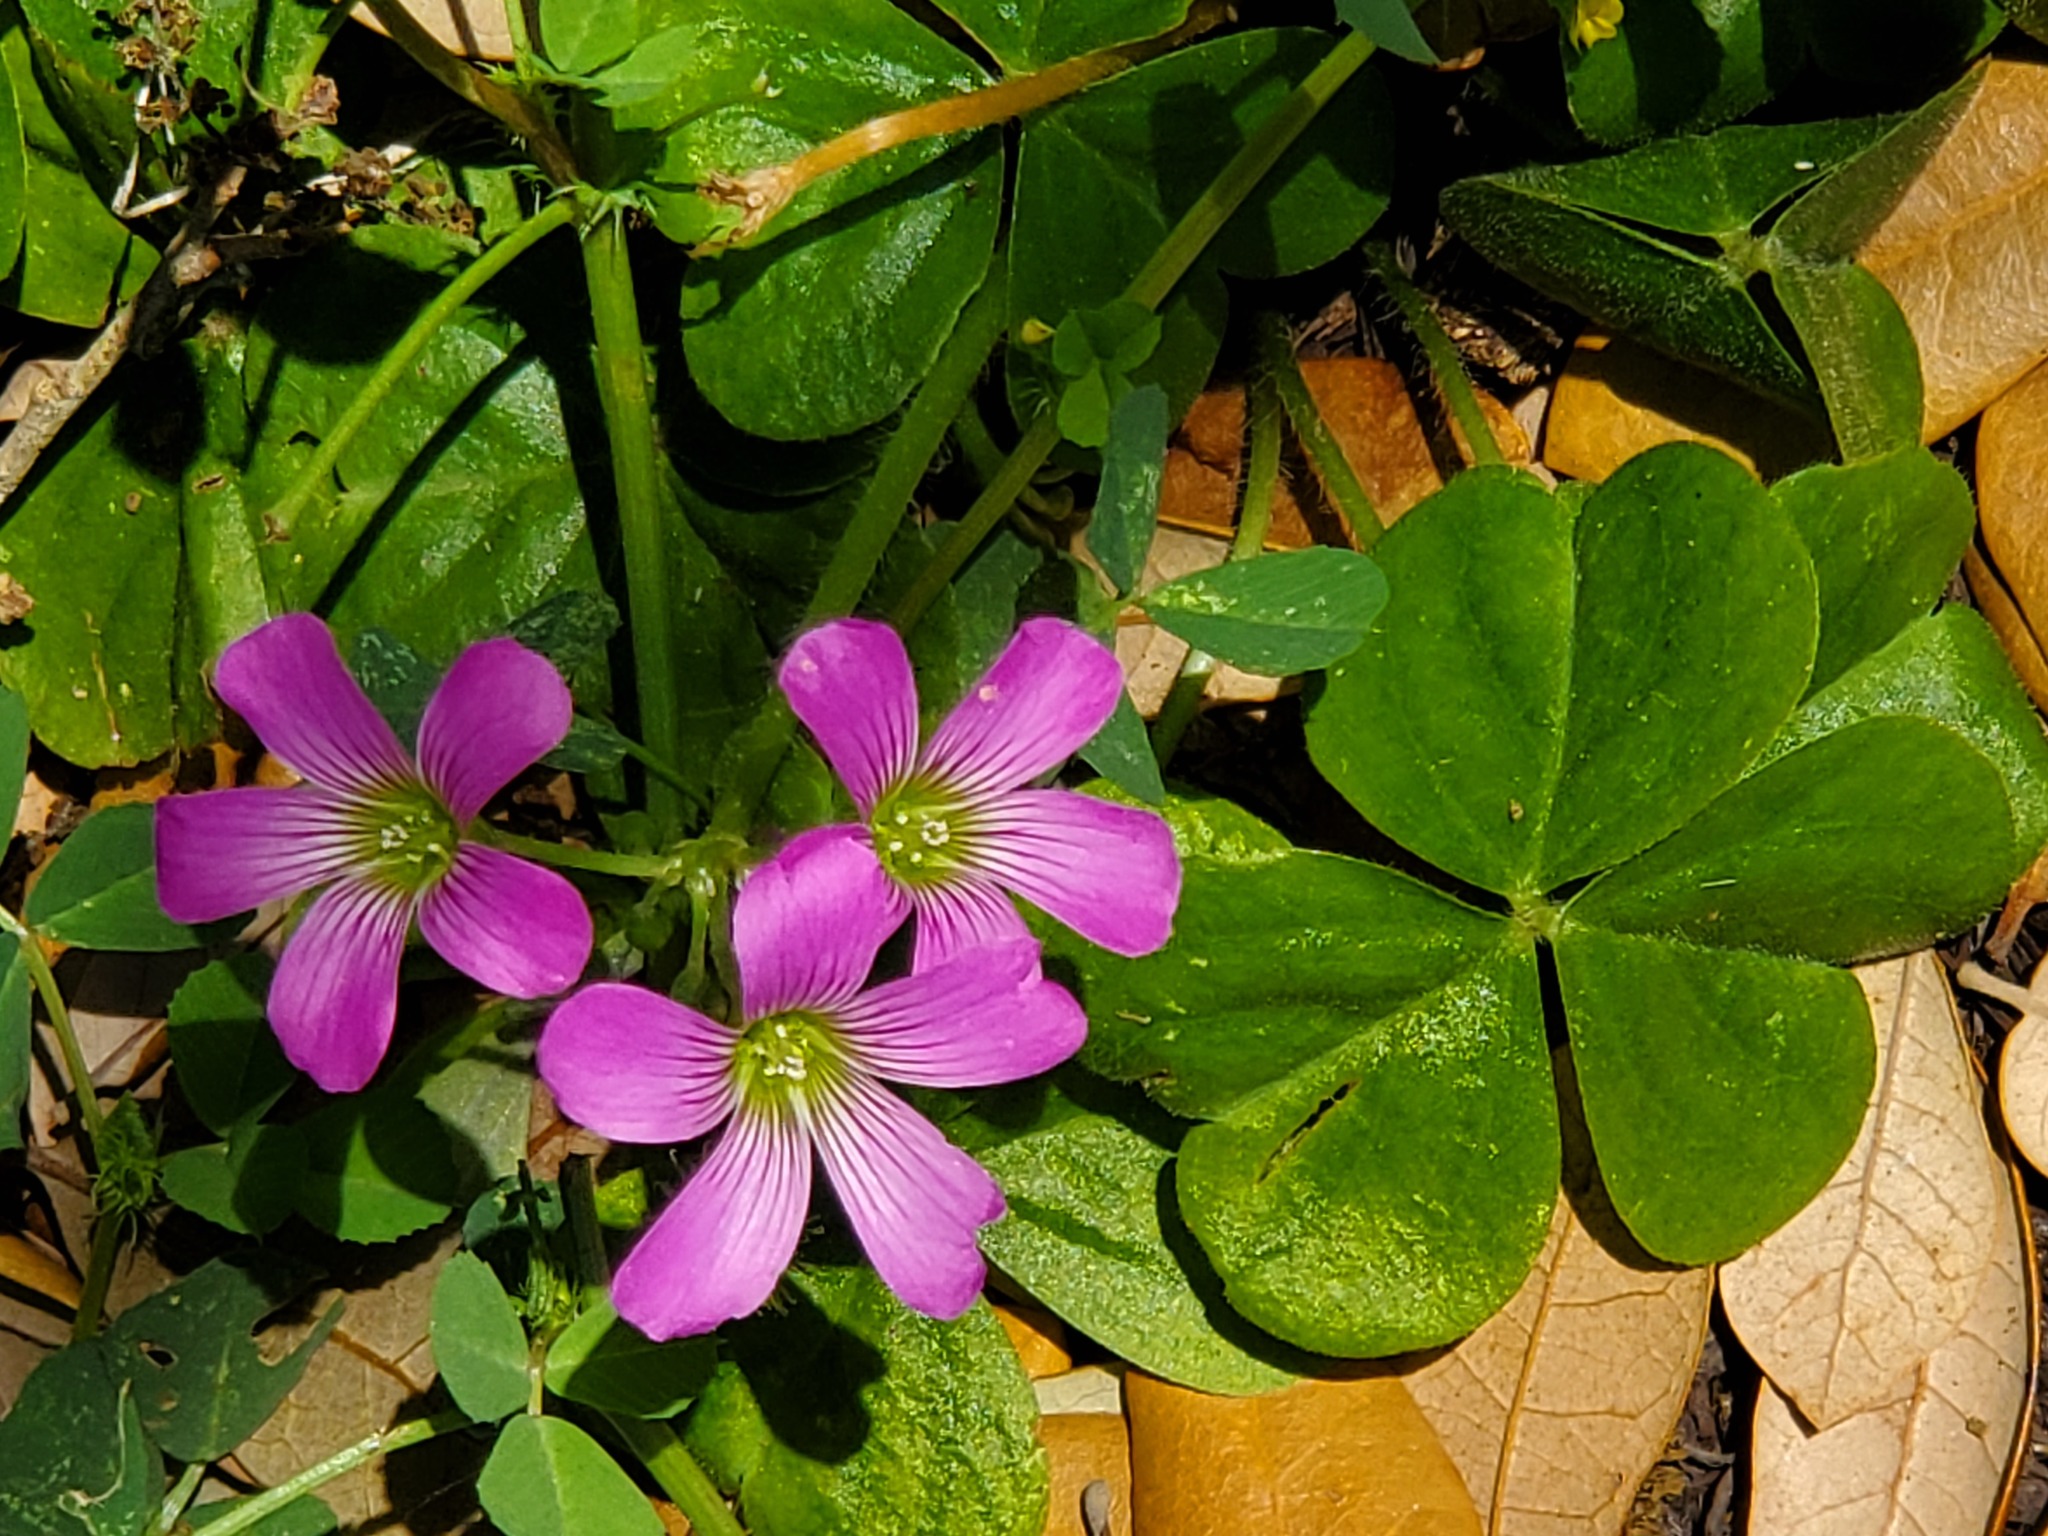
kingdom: Plantae
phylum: Tracheophyta
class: Magnoliopsida
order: Oxalidales
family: Oxalidaceae
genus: Oxalis
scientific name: Oxalis debilis
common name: Large-flowered pink-sorrel
